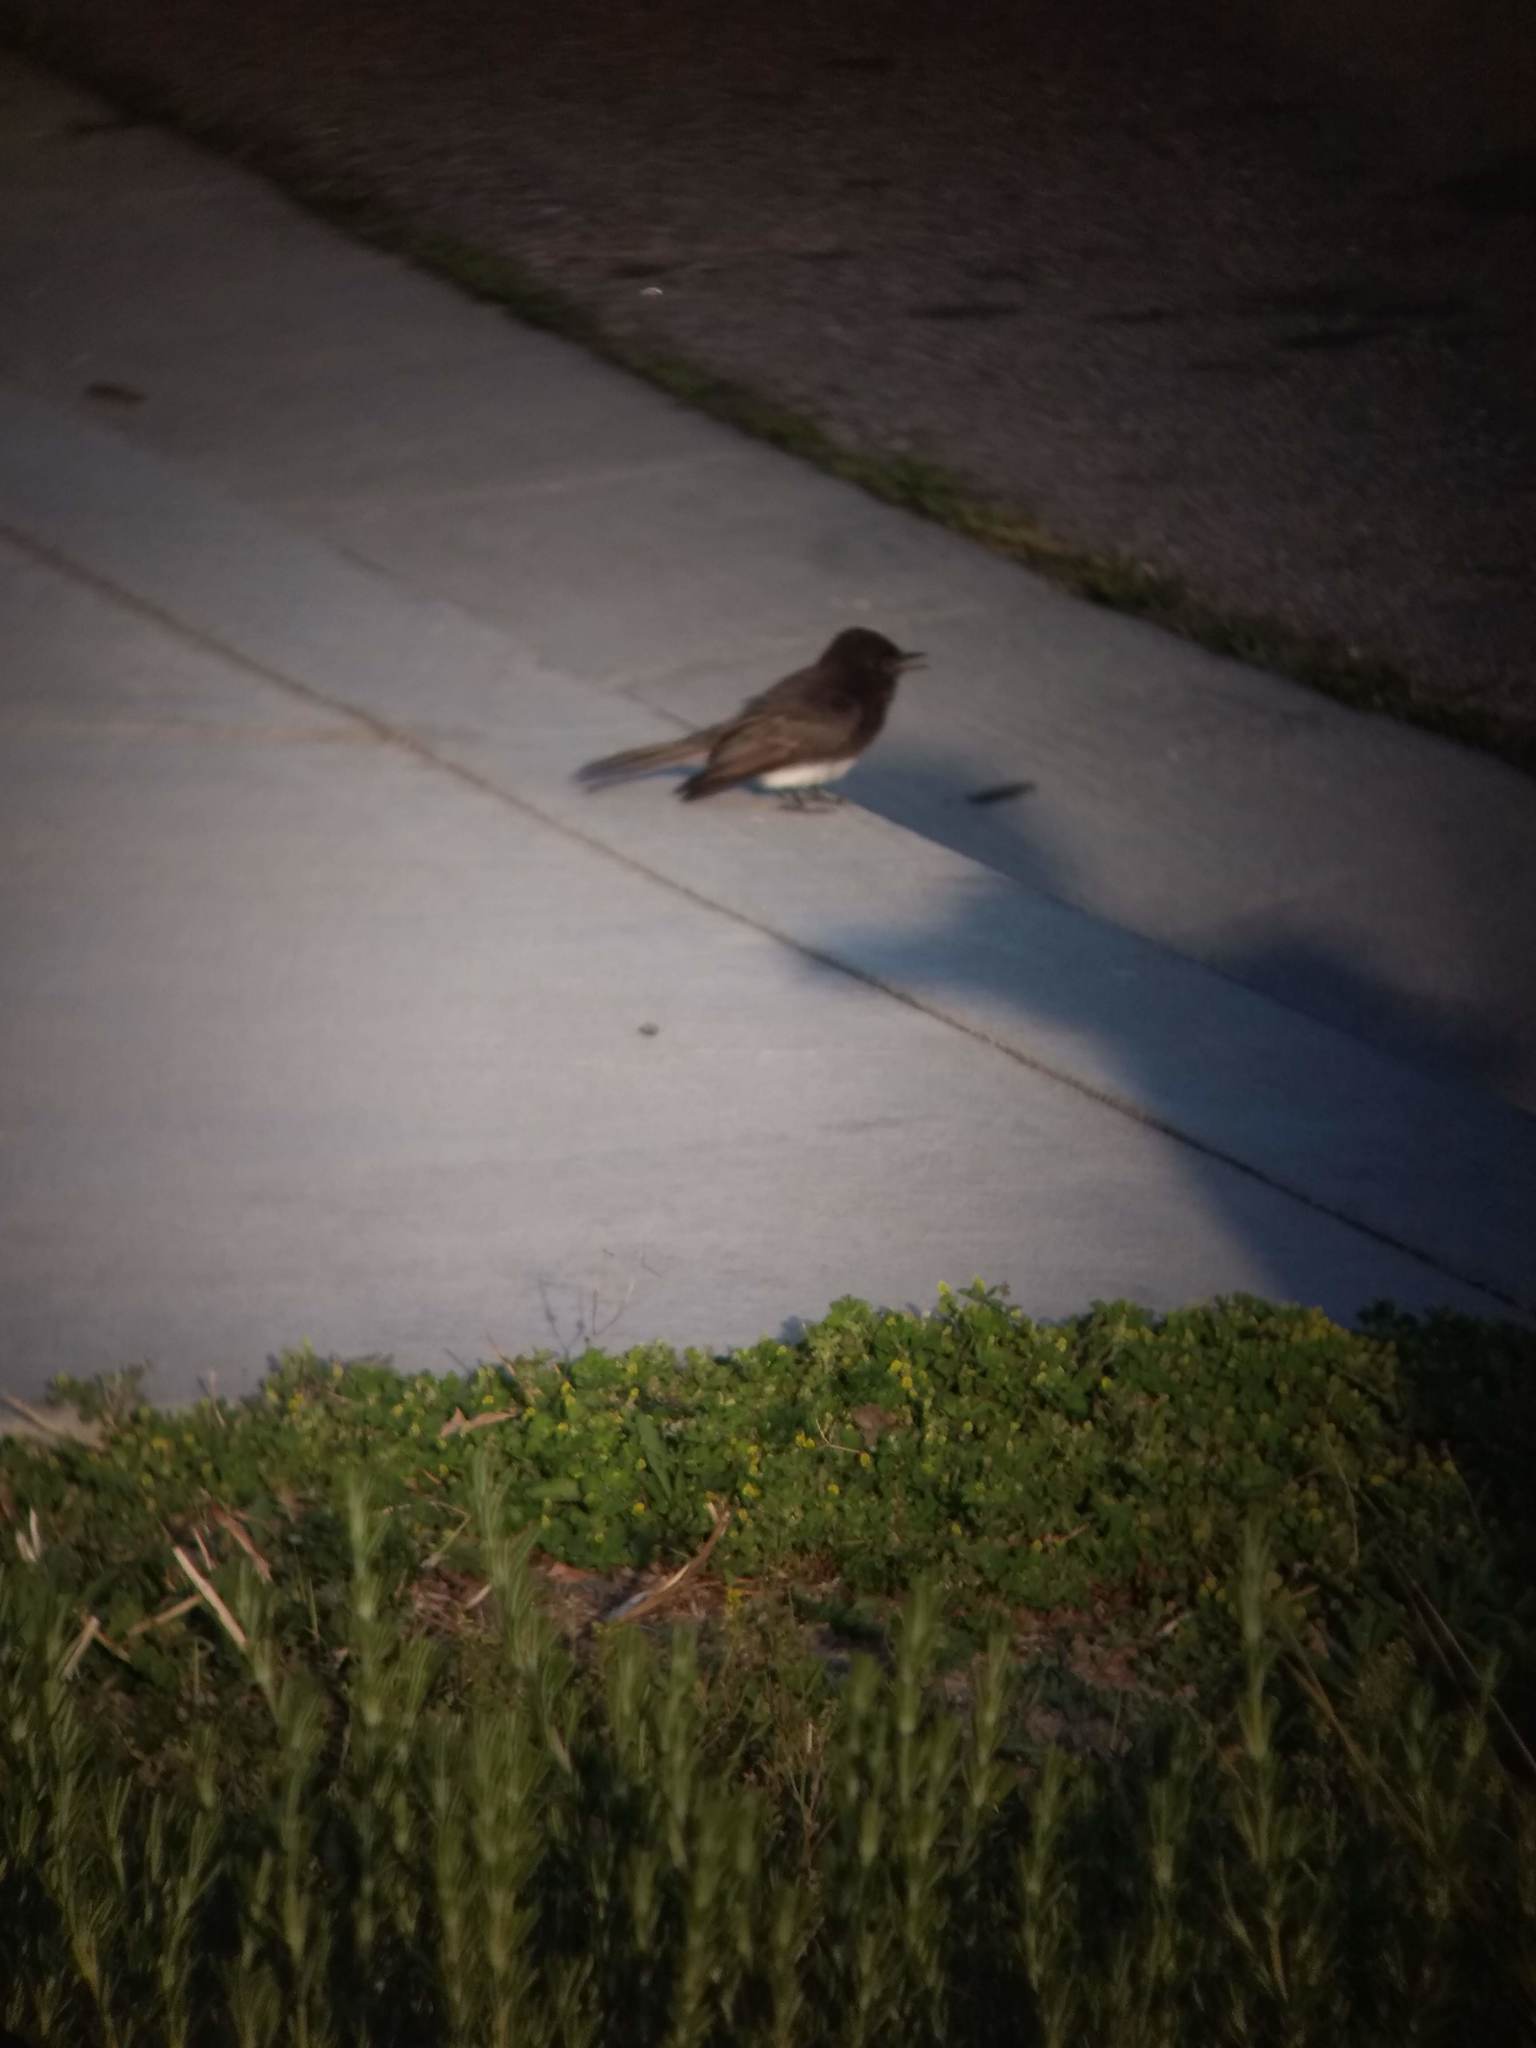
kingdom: Animalia
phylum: Chordata
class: Aves
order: Passeriformes
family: Tyrannidae
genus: Sayornis
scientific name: Sayornis nigricans
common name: Black phoebe
